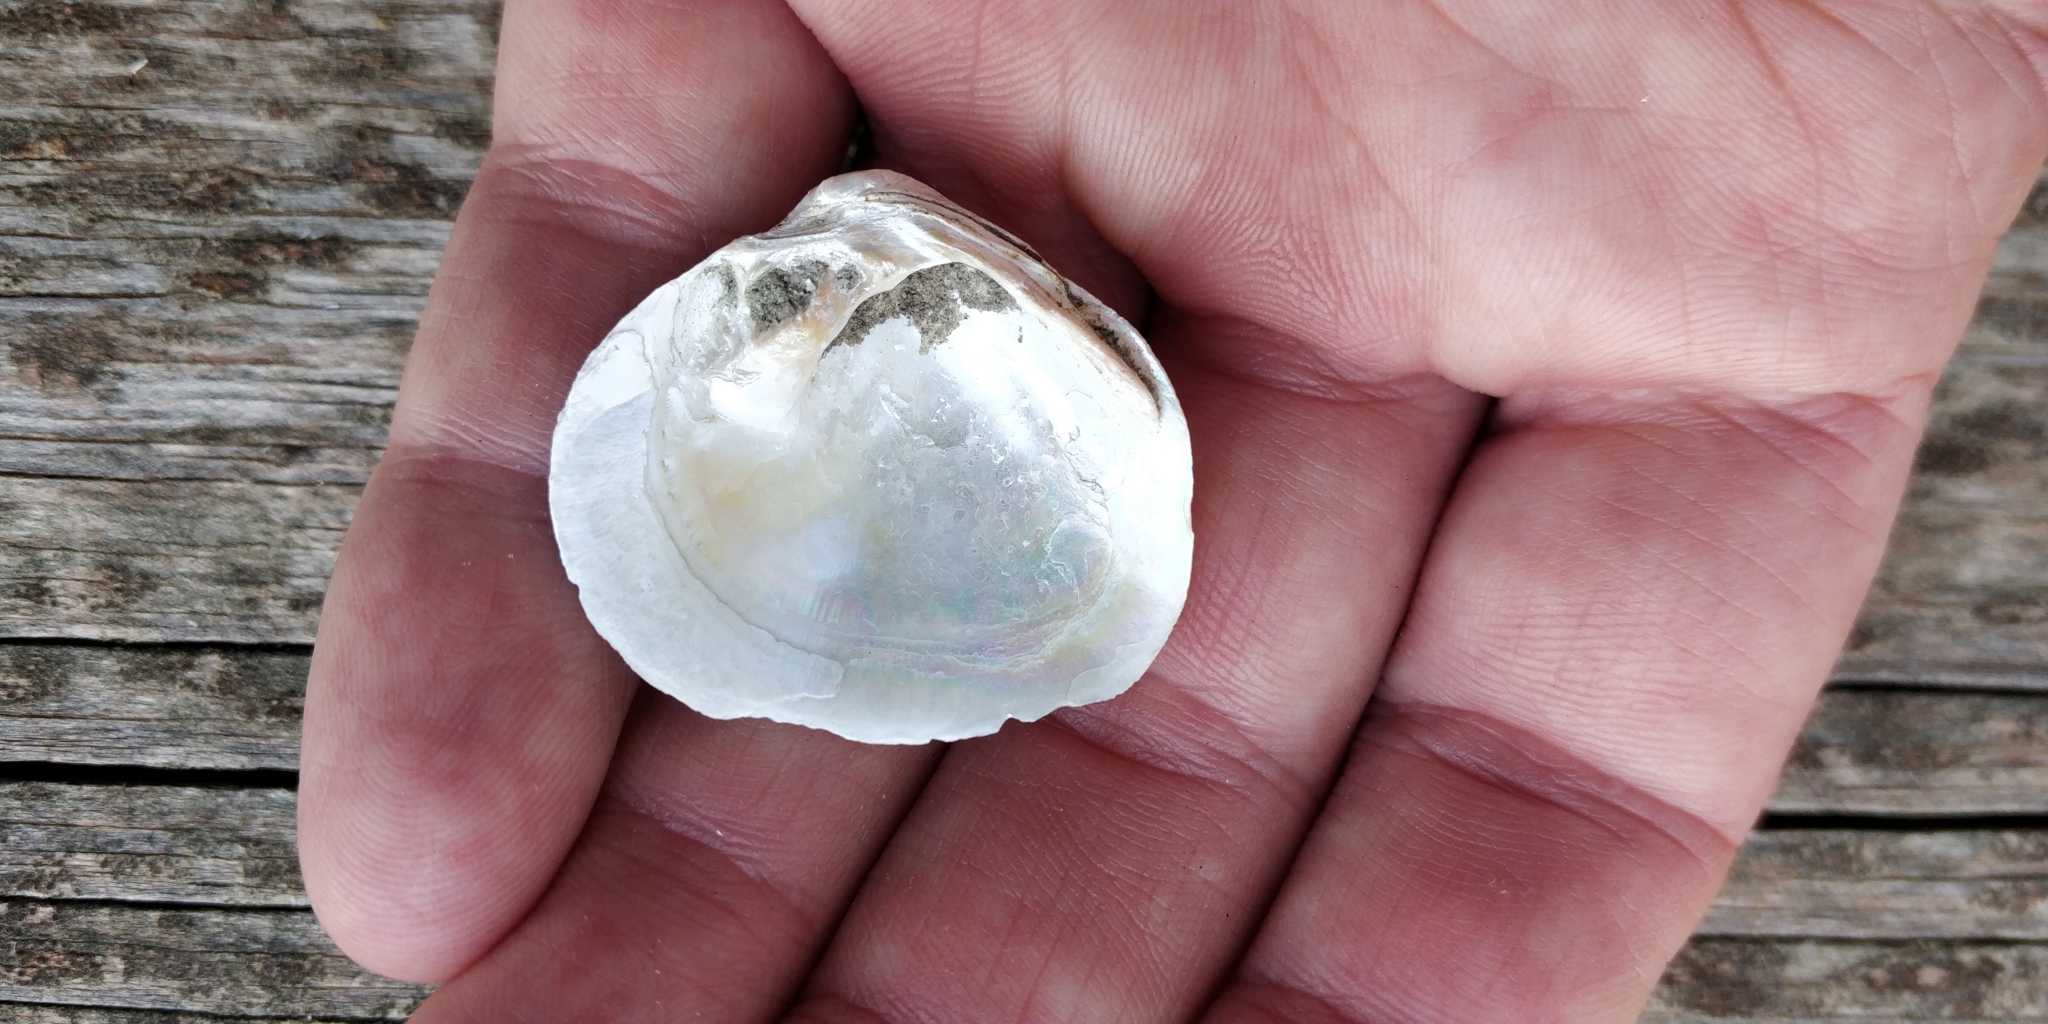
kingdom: Animalia
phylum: Mollusca
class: Bivalvia
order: Unionida
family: Unionidae
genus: Cyclonaias
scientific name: Cyclonaias pustulosa
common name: Pimpleback
